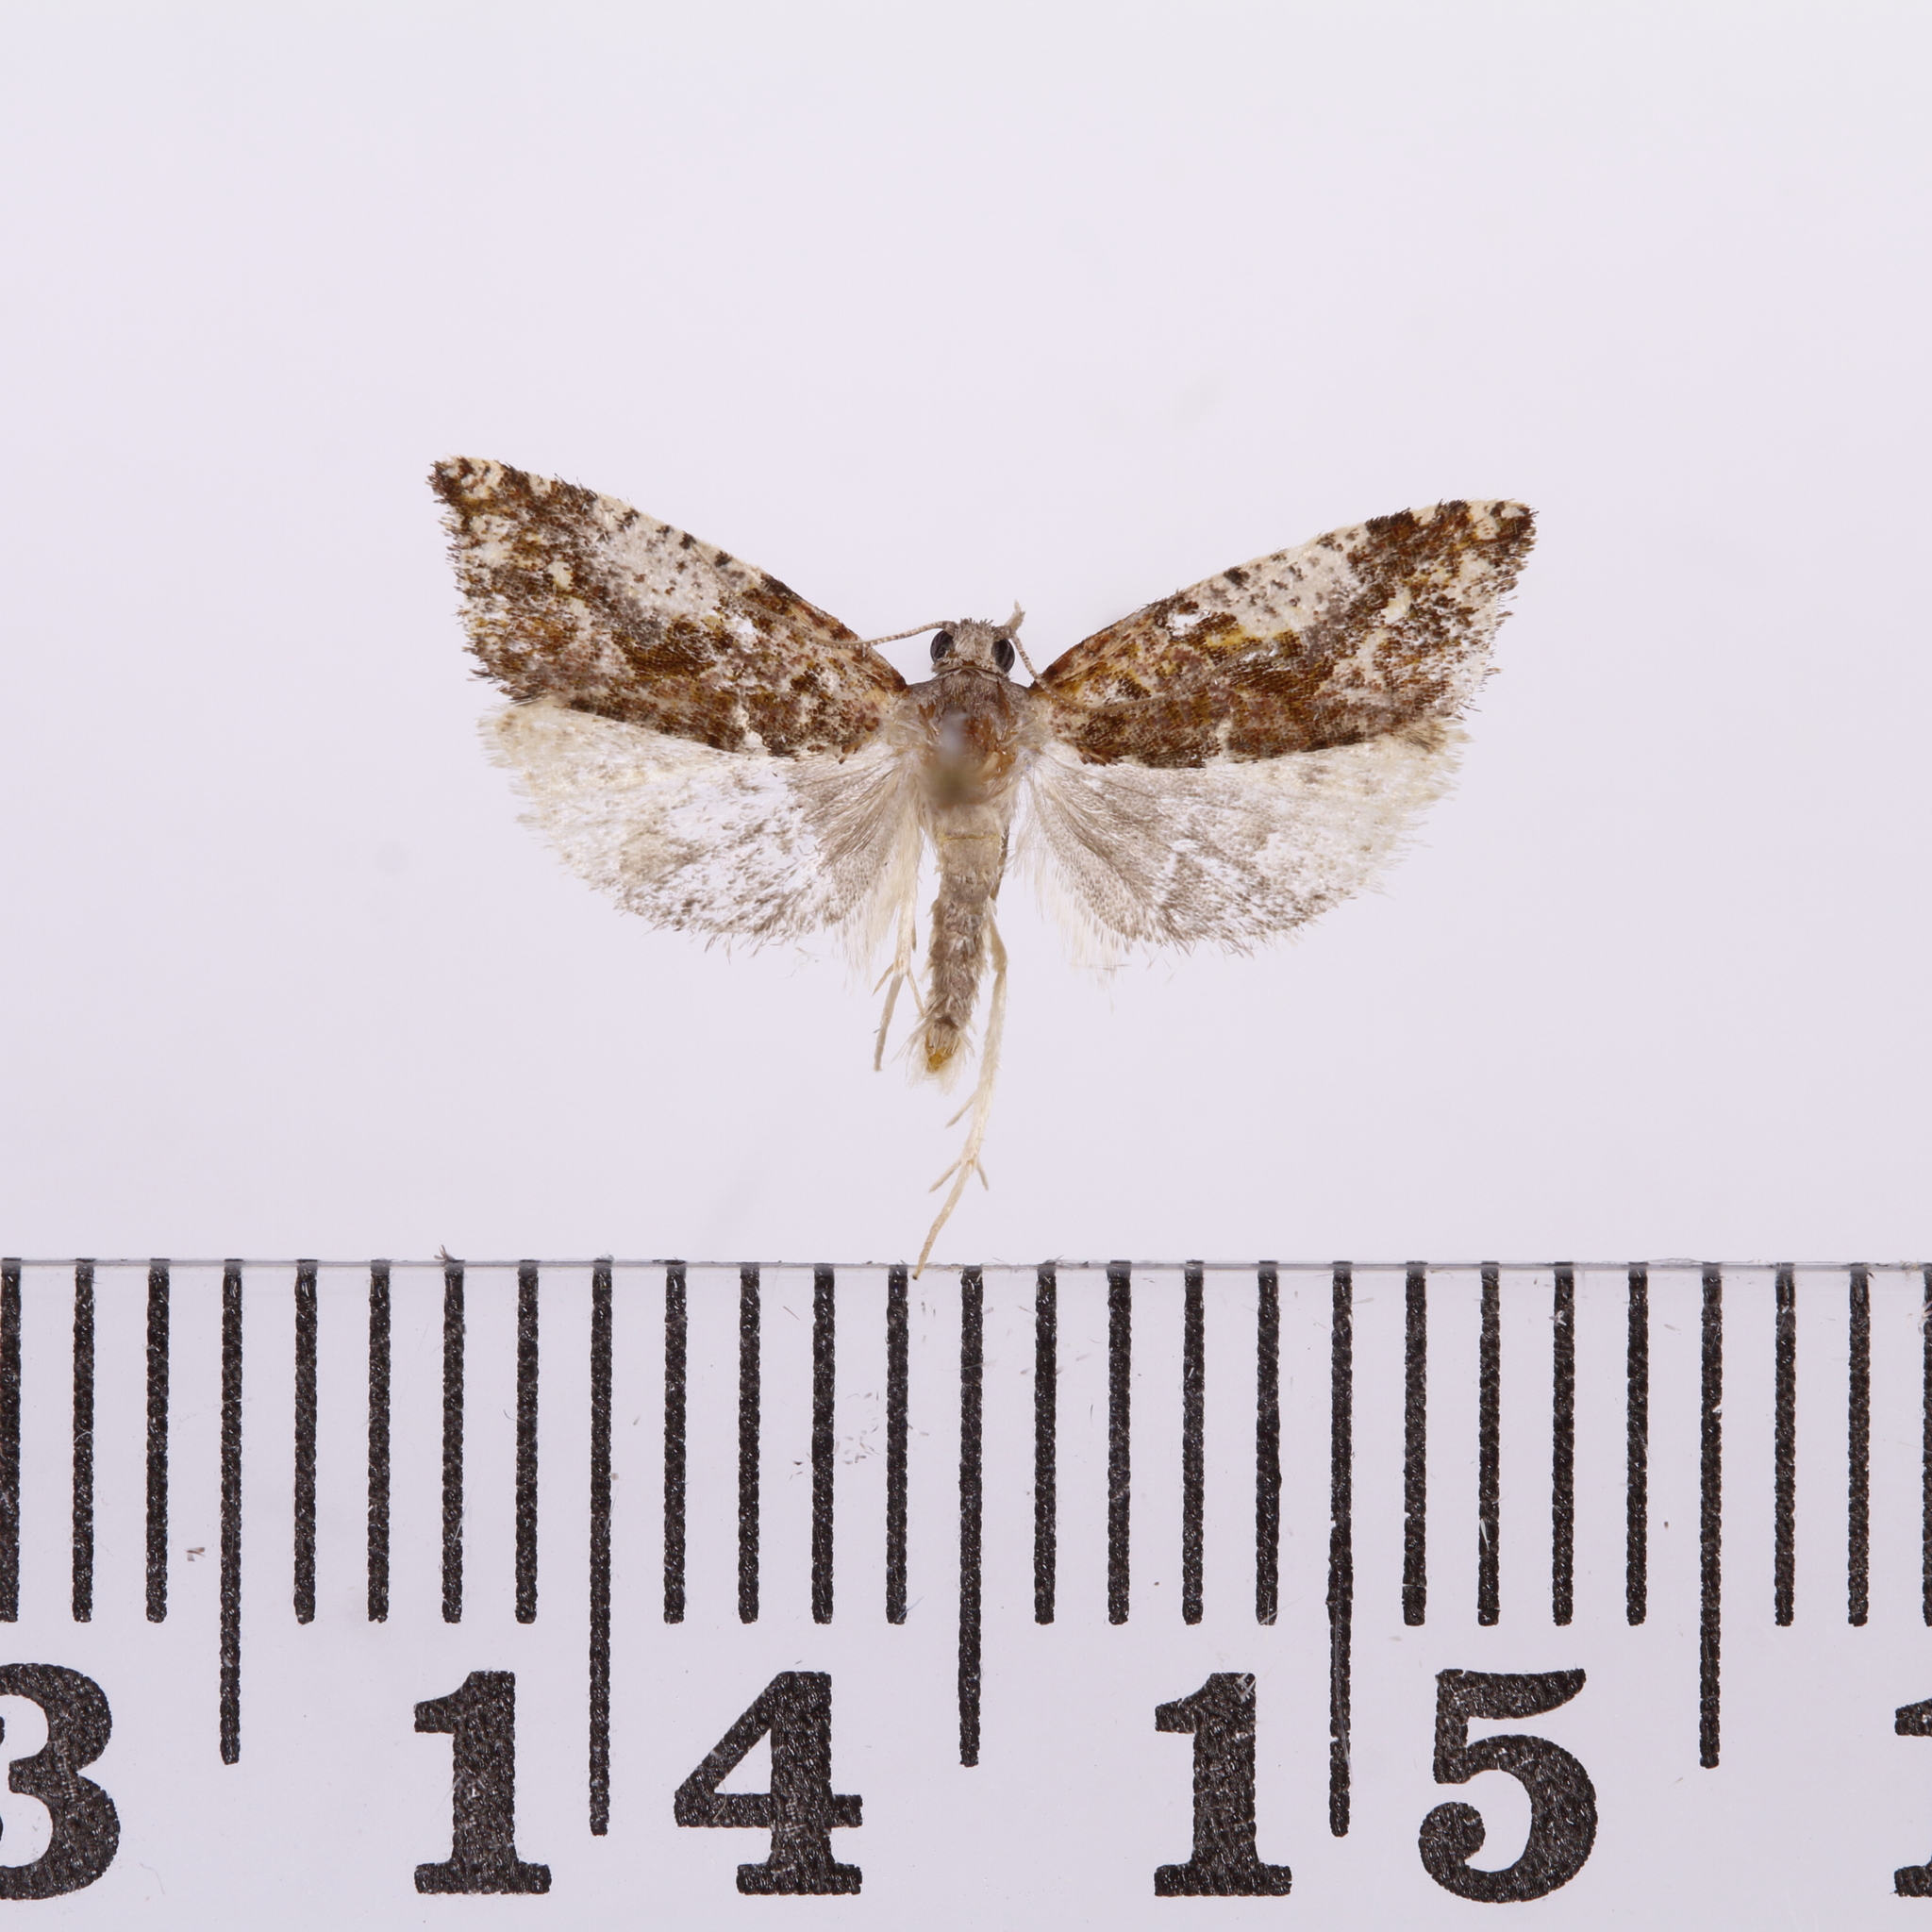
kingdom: Animalia
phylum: Arthropoda
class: Insecta
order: Lepidoptera
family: Tortricidae
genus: Pyrgotis
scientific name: Pyrgotis plagiatana
